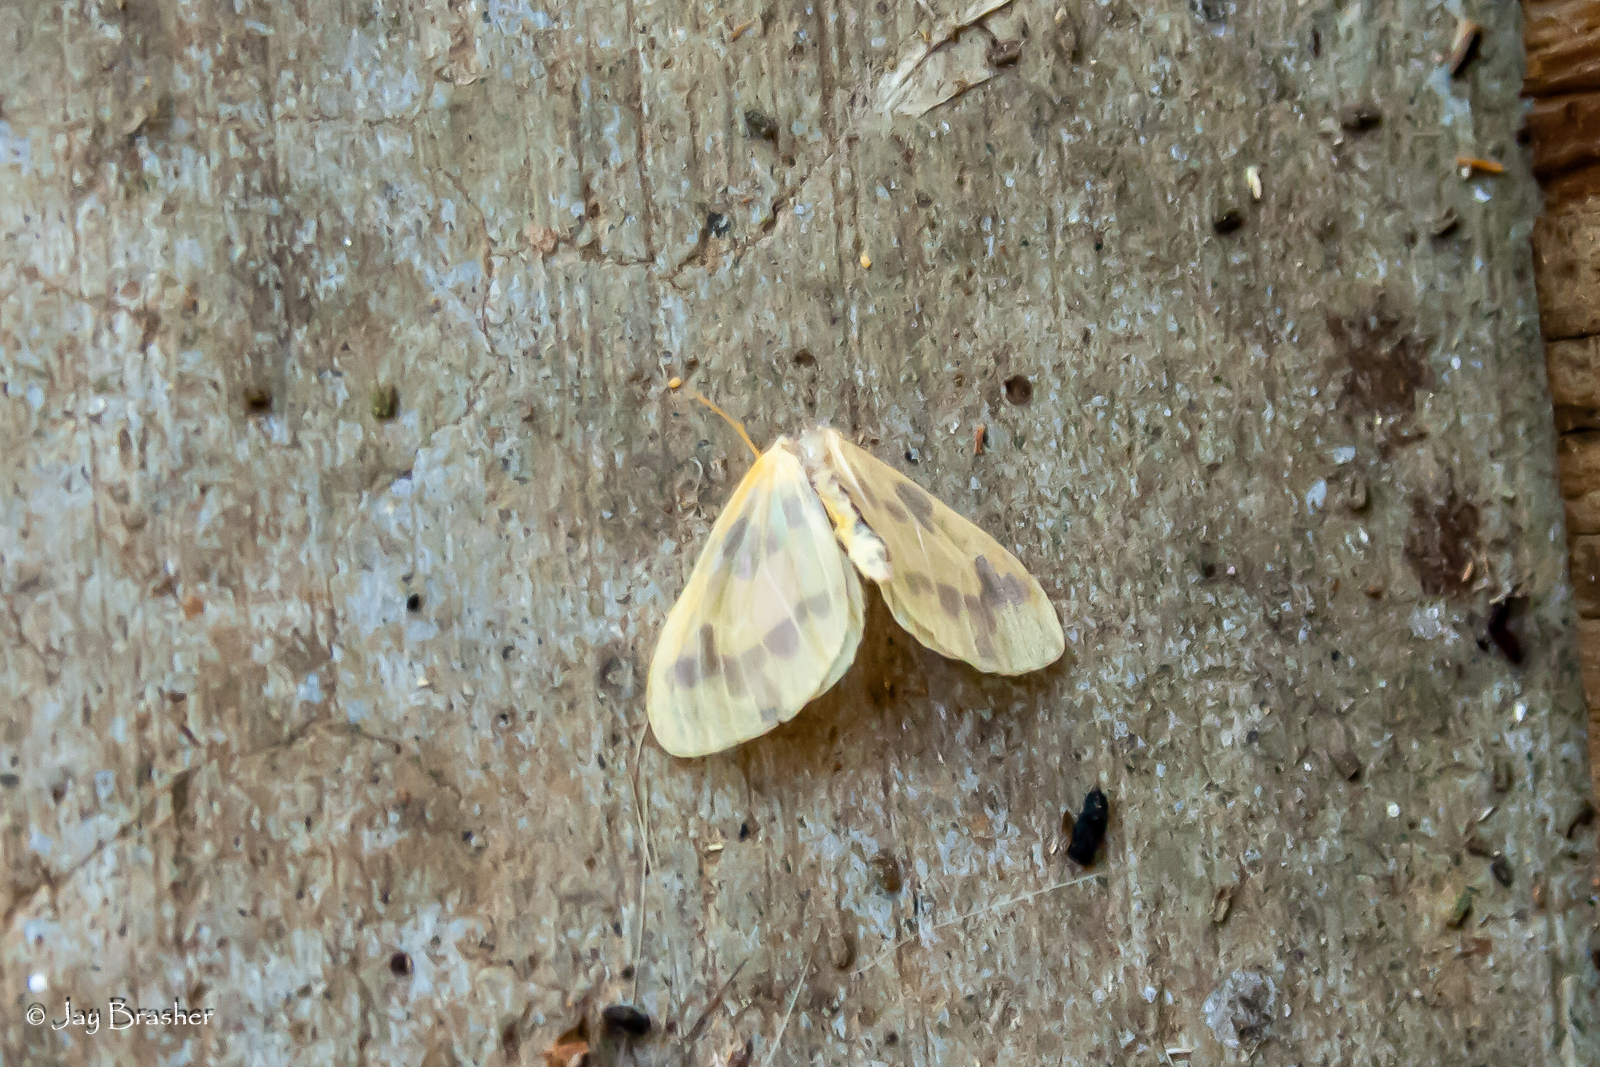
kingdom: Animalia
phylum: Arthropoda
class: Insecta
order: Lepidoptera
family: Geometridae
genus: Eubaphe
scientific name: Eubaphe mendica
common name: Beggar
